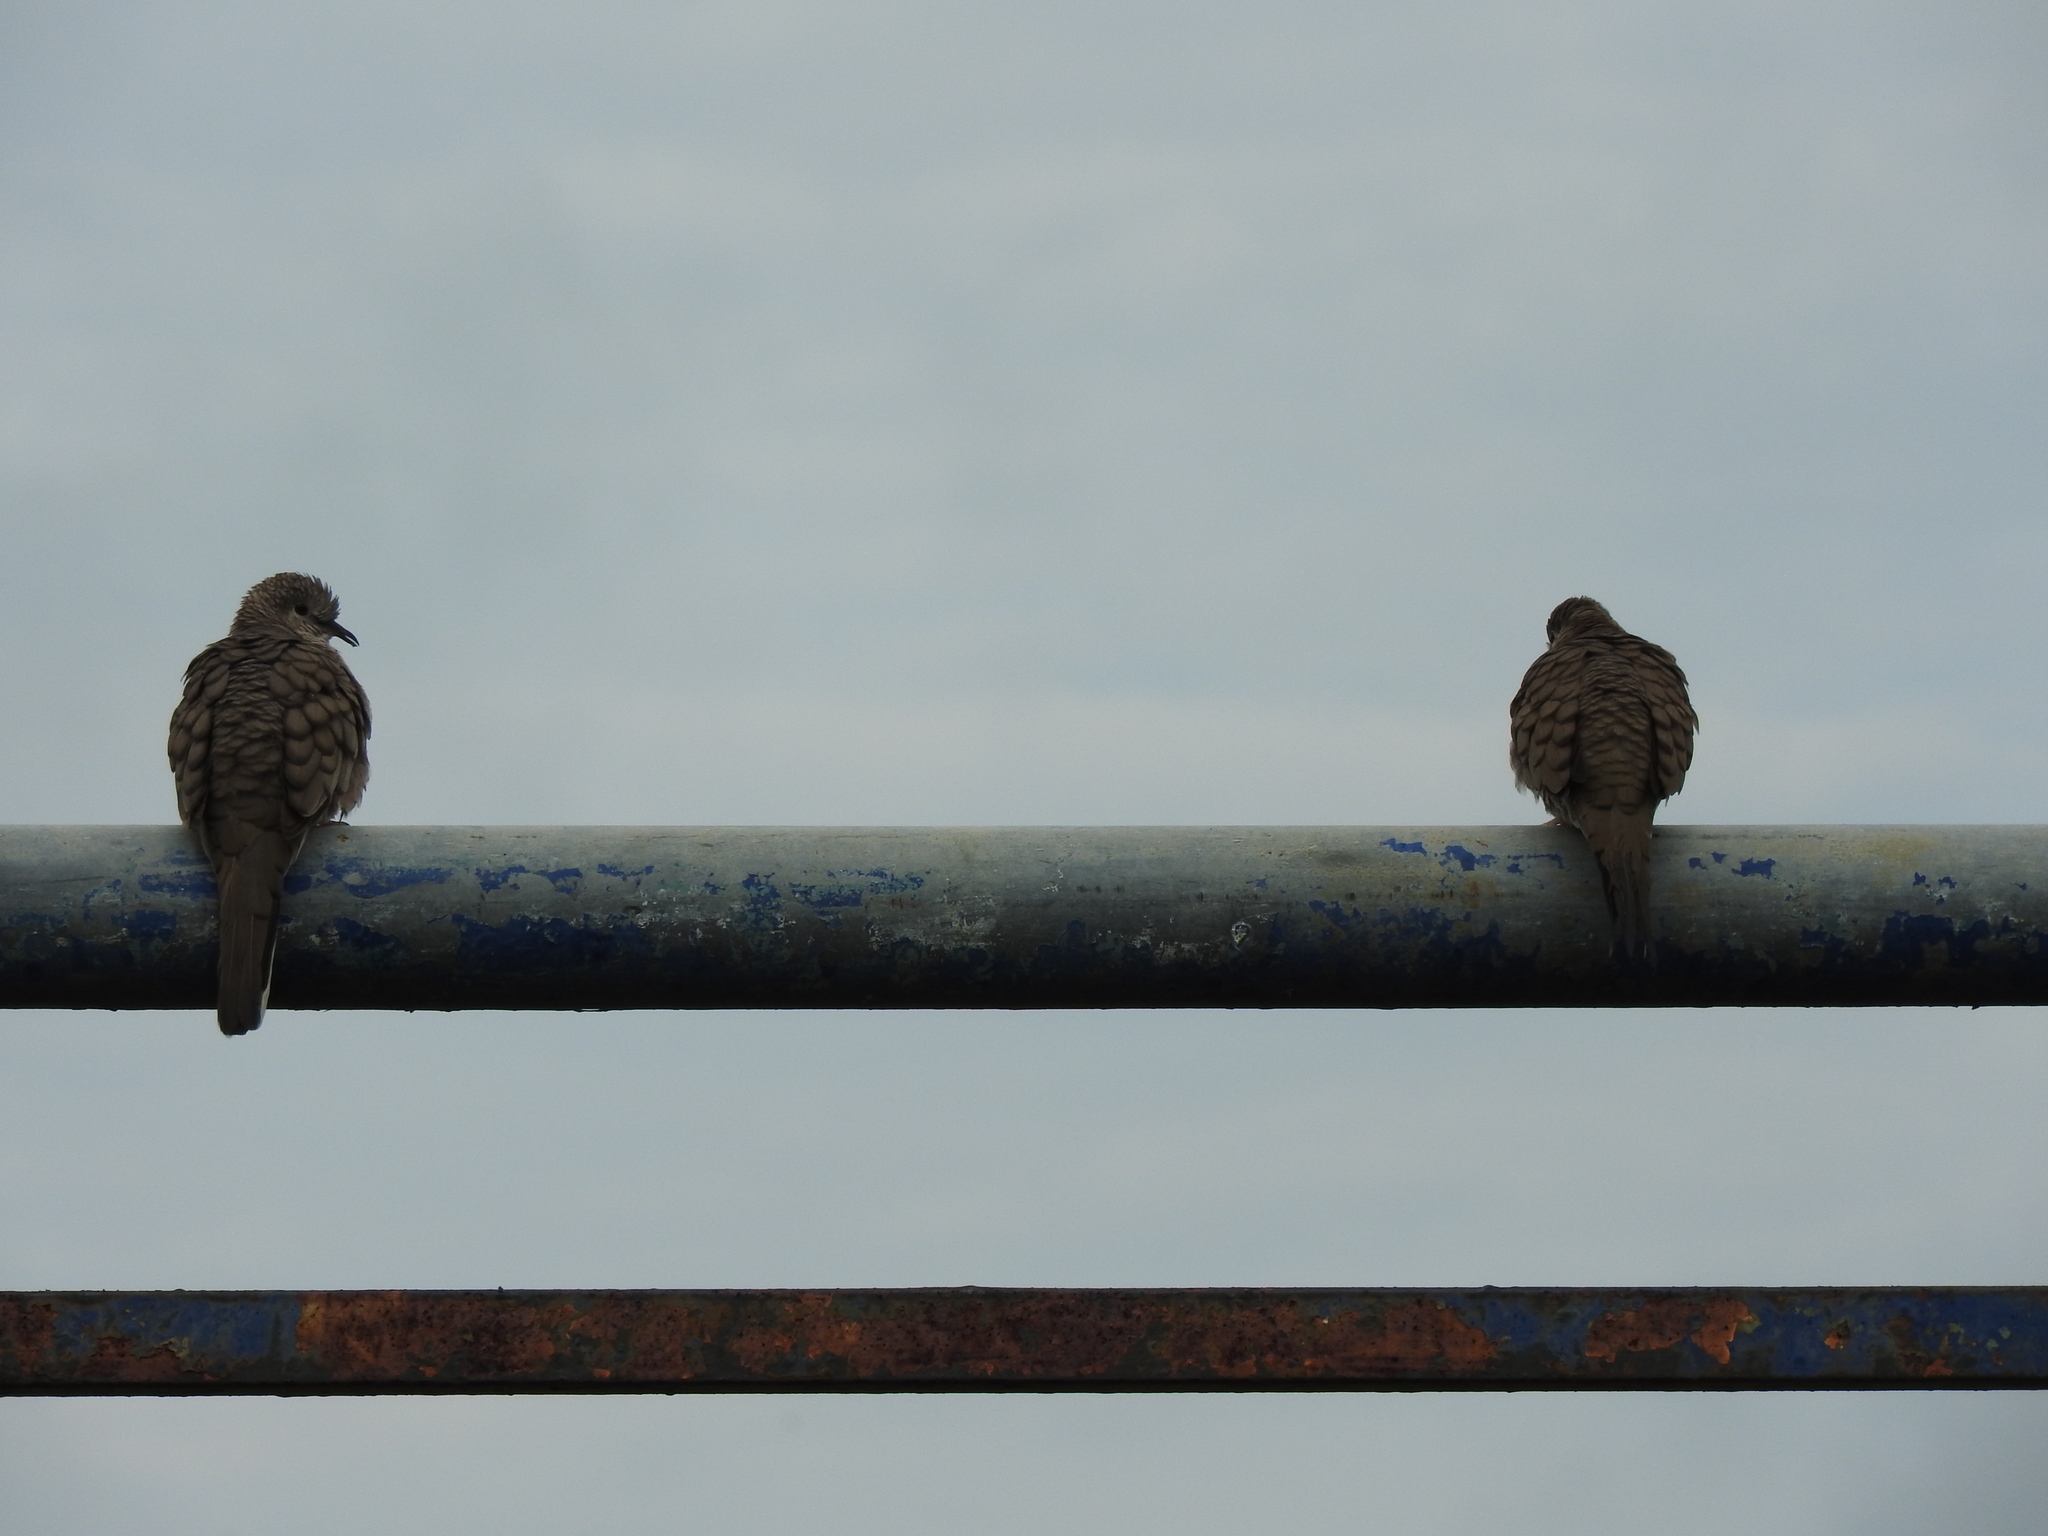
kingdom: Animalia
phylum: Chordata
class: Aves
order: Columbiformes
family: Columbidae
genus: Columbina
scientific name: Columbina inca
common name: Inca dove
